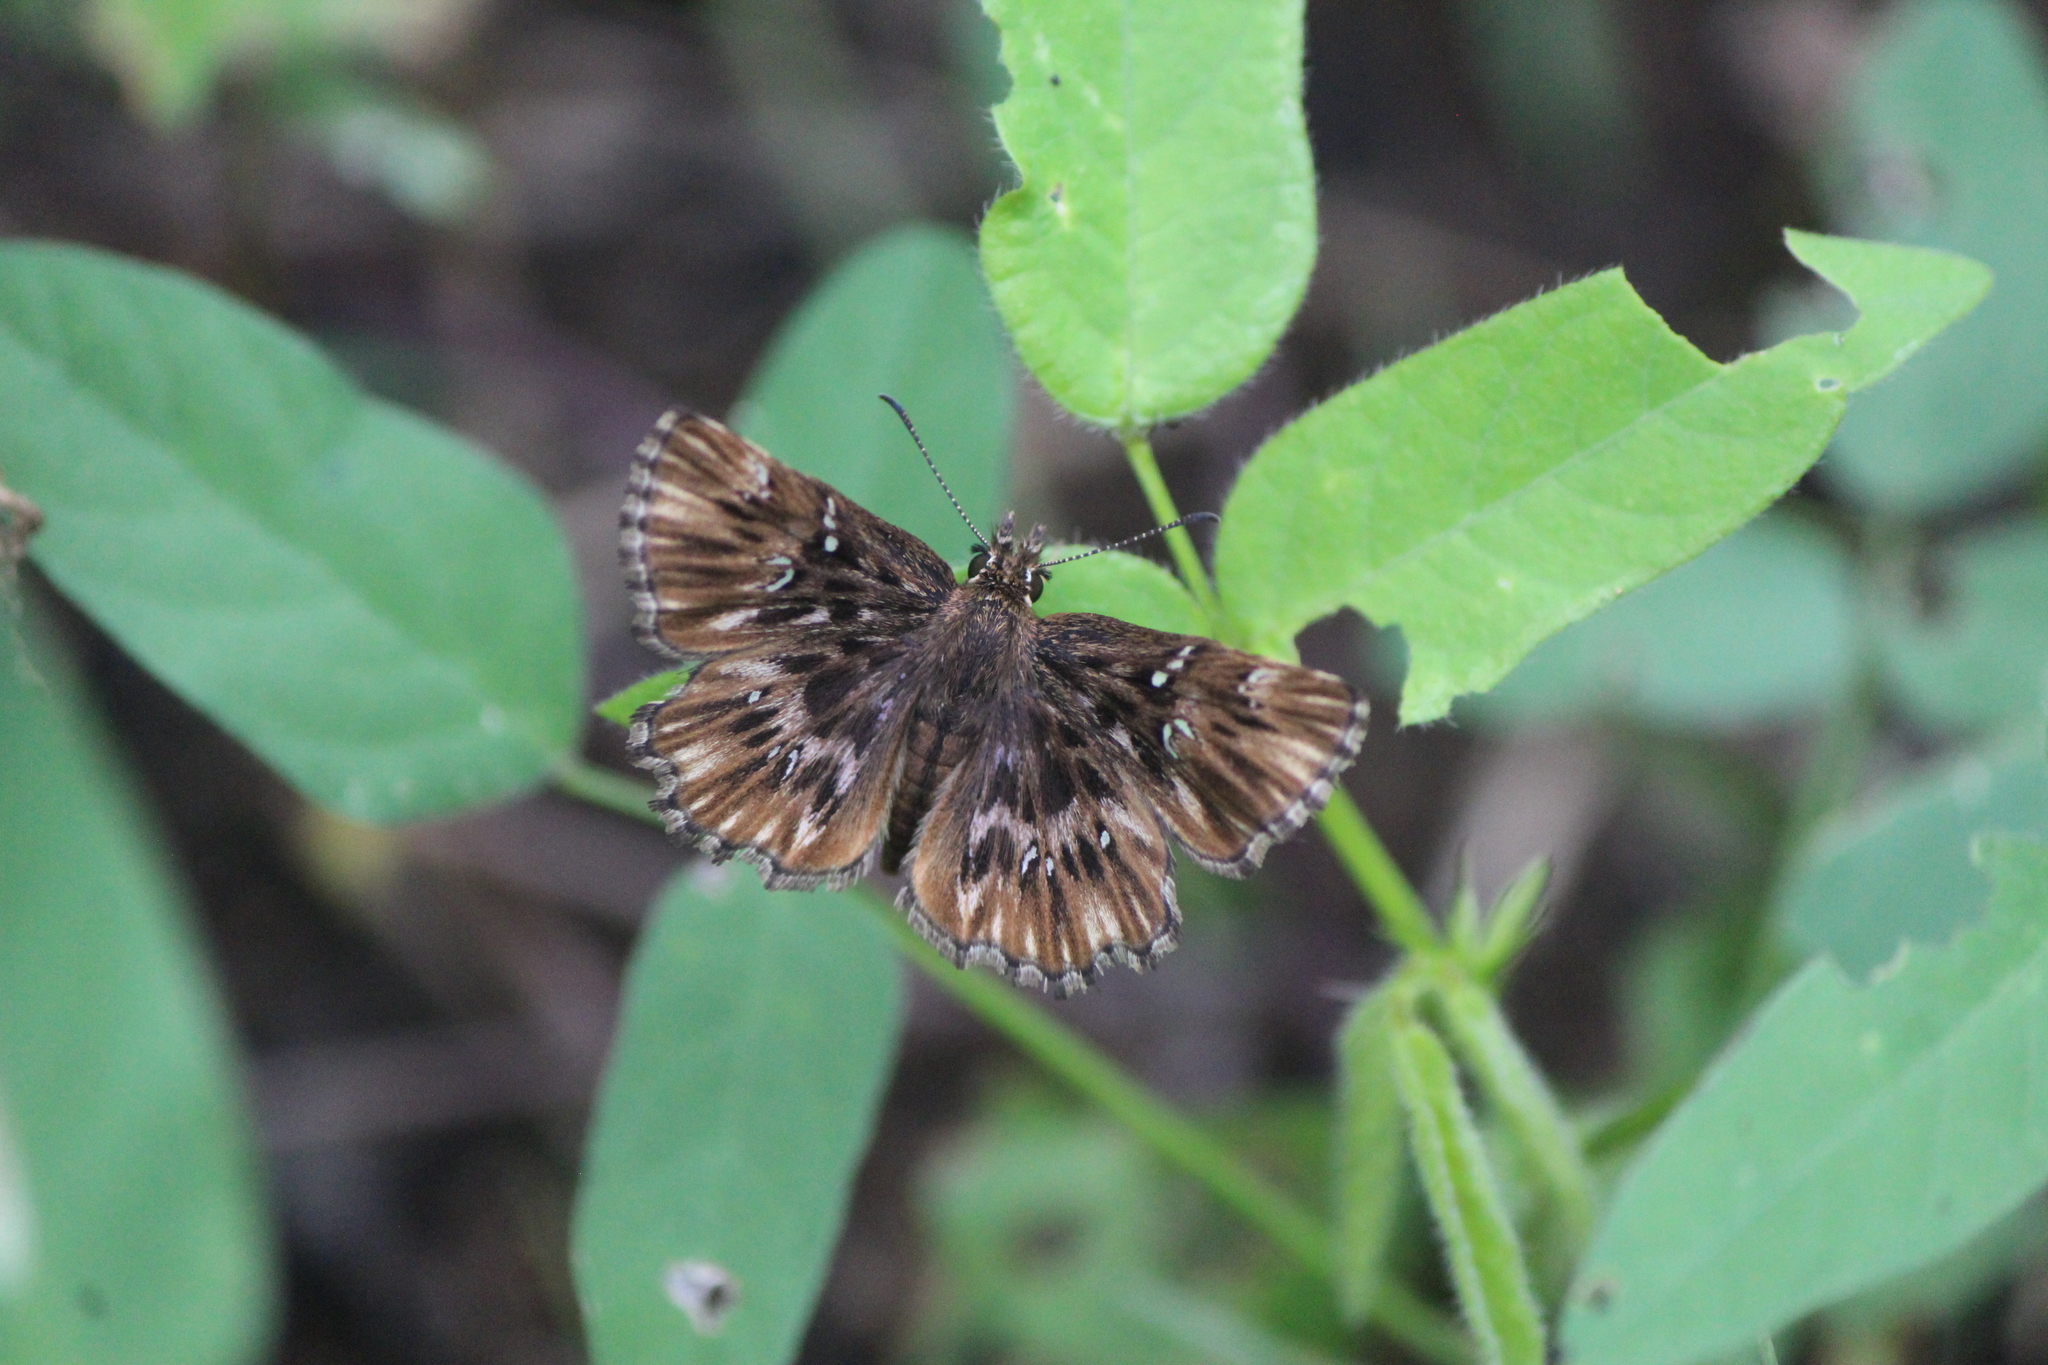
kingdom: Animalia
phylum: Arthropoda
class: Insecta
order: Lepidoptera
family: Hesperiidae
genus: Celotes
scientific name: Celotes spurcus
